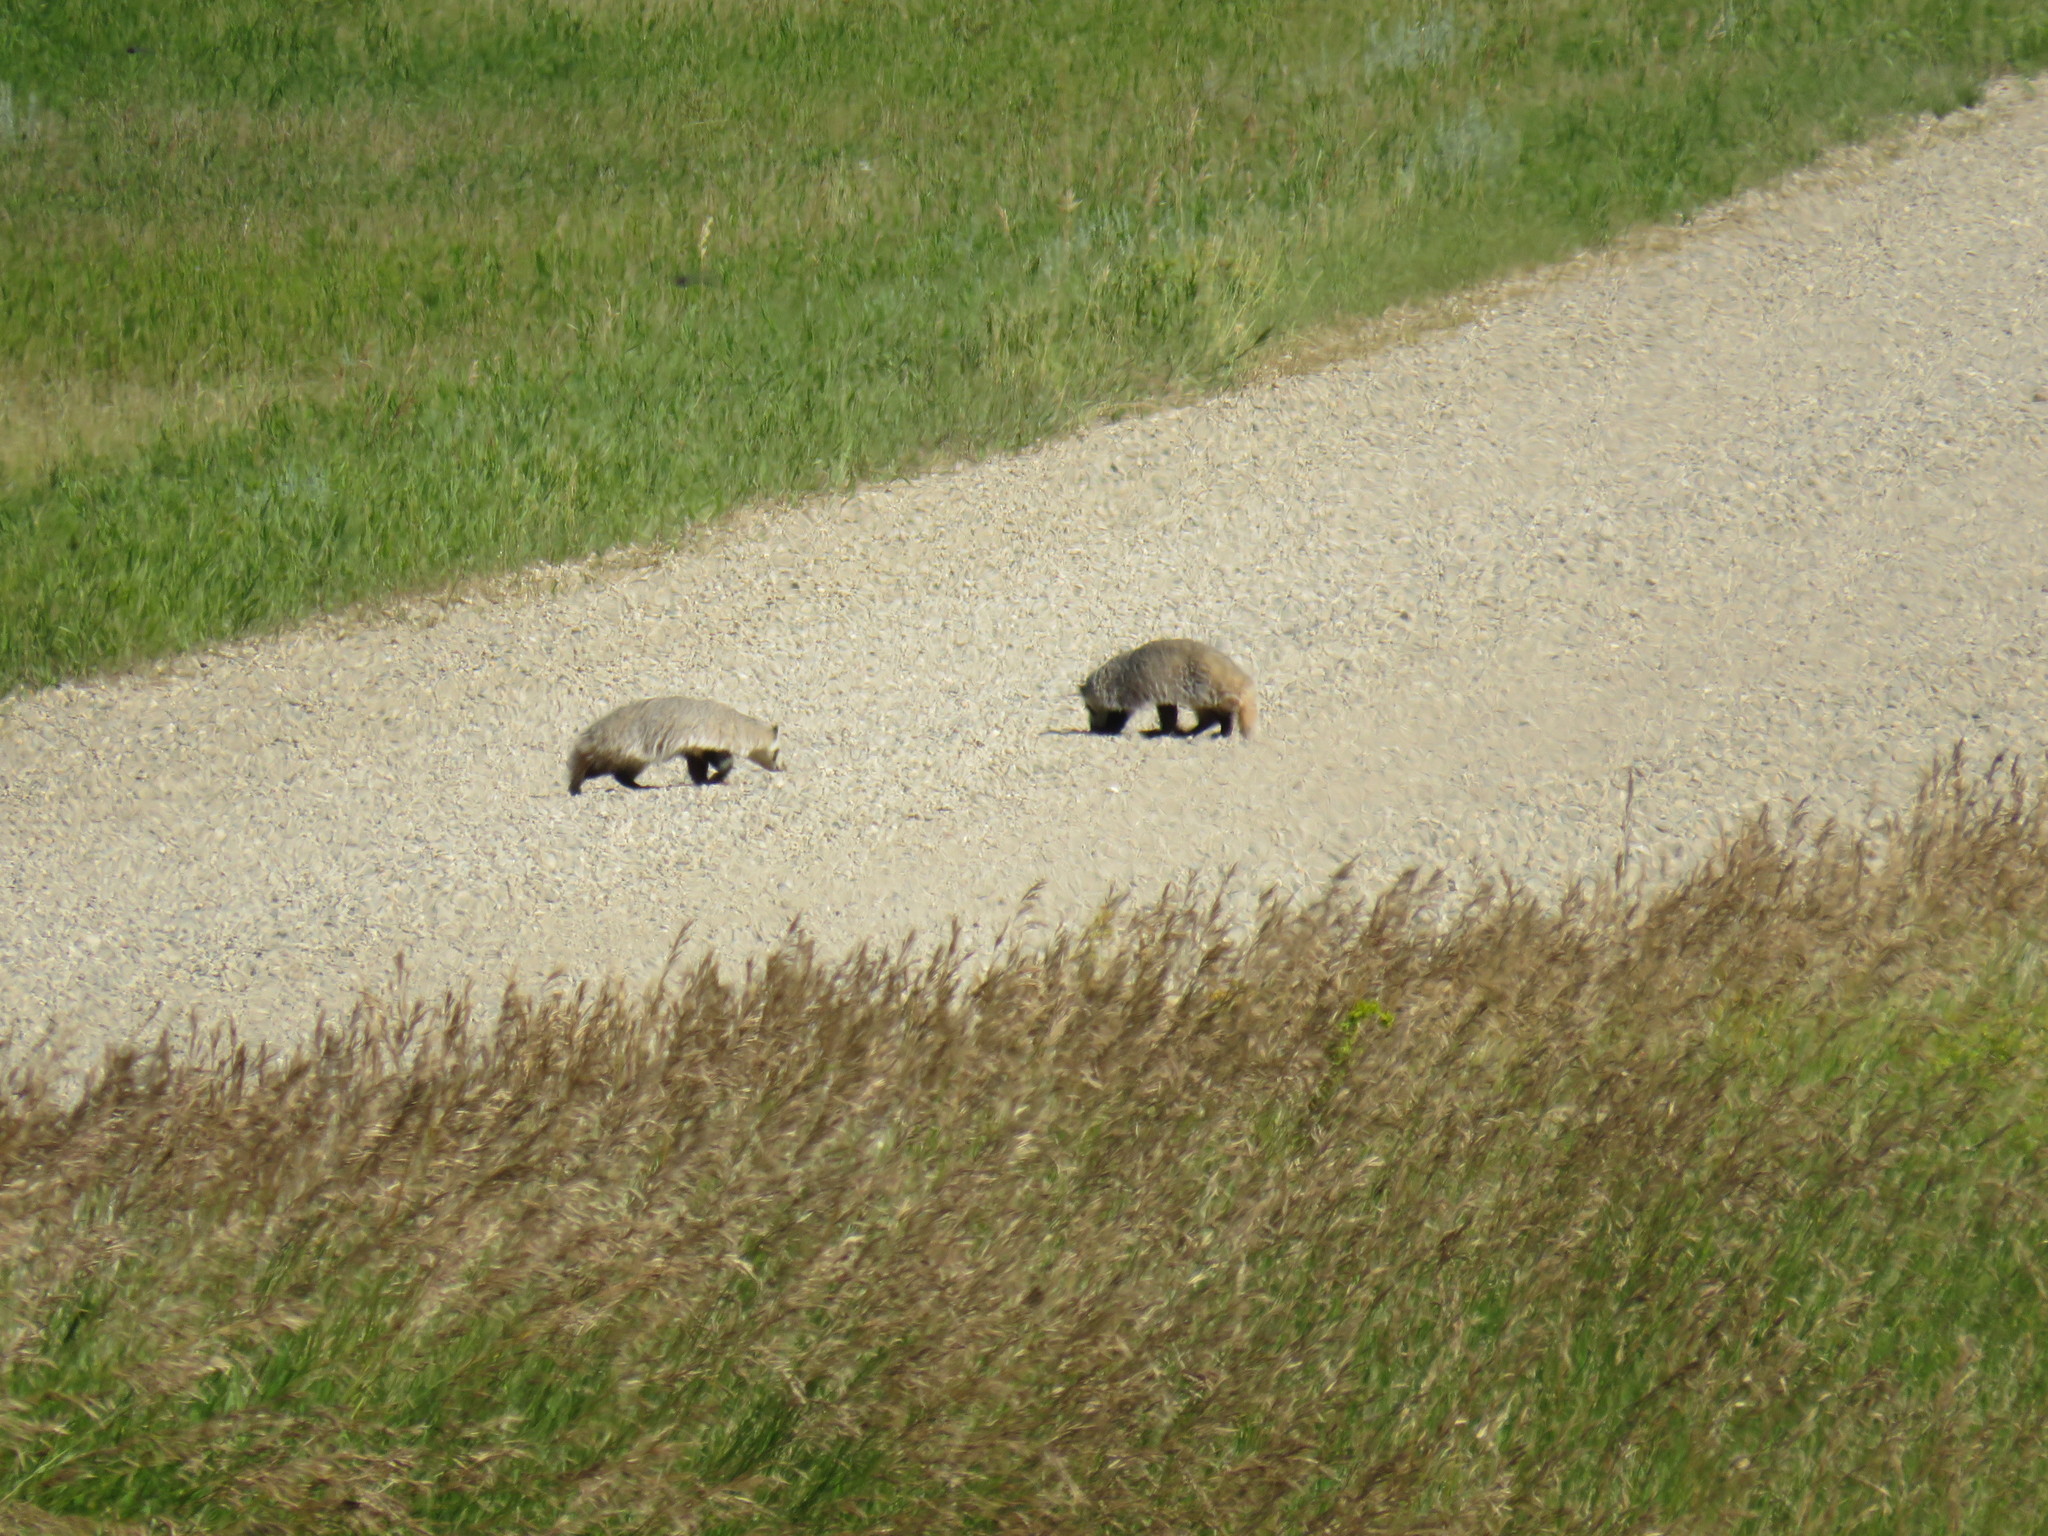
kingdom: Animalia
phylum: Chordata
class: Mammalia
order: Carnivora
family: Mustelidae
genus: Taxidea
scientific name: Taxidea taxus
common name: American badger
